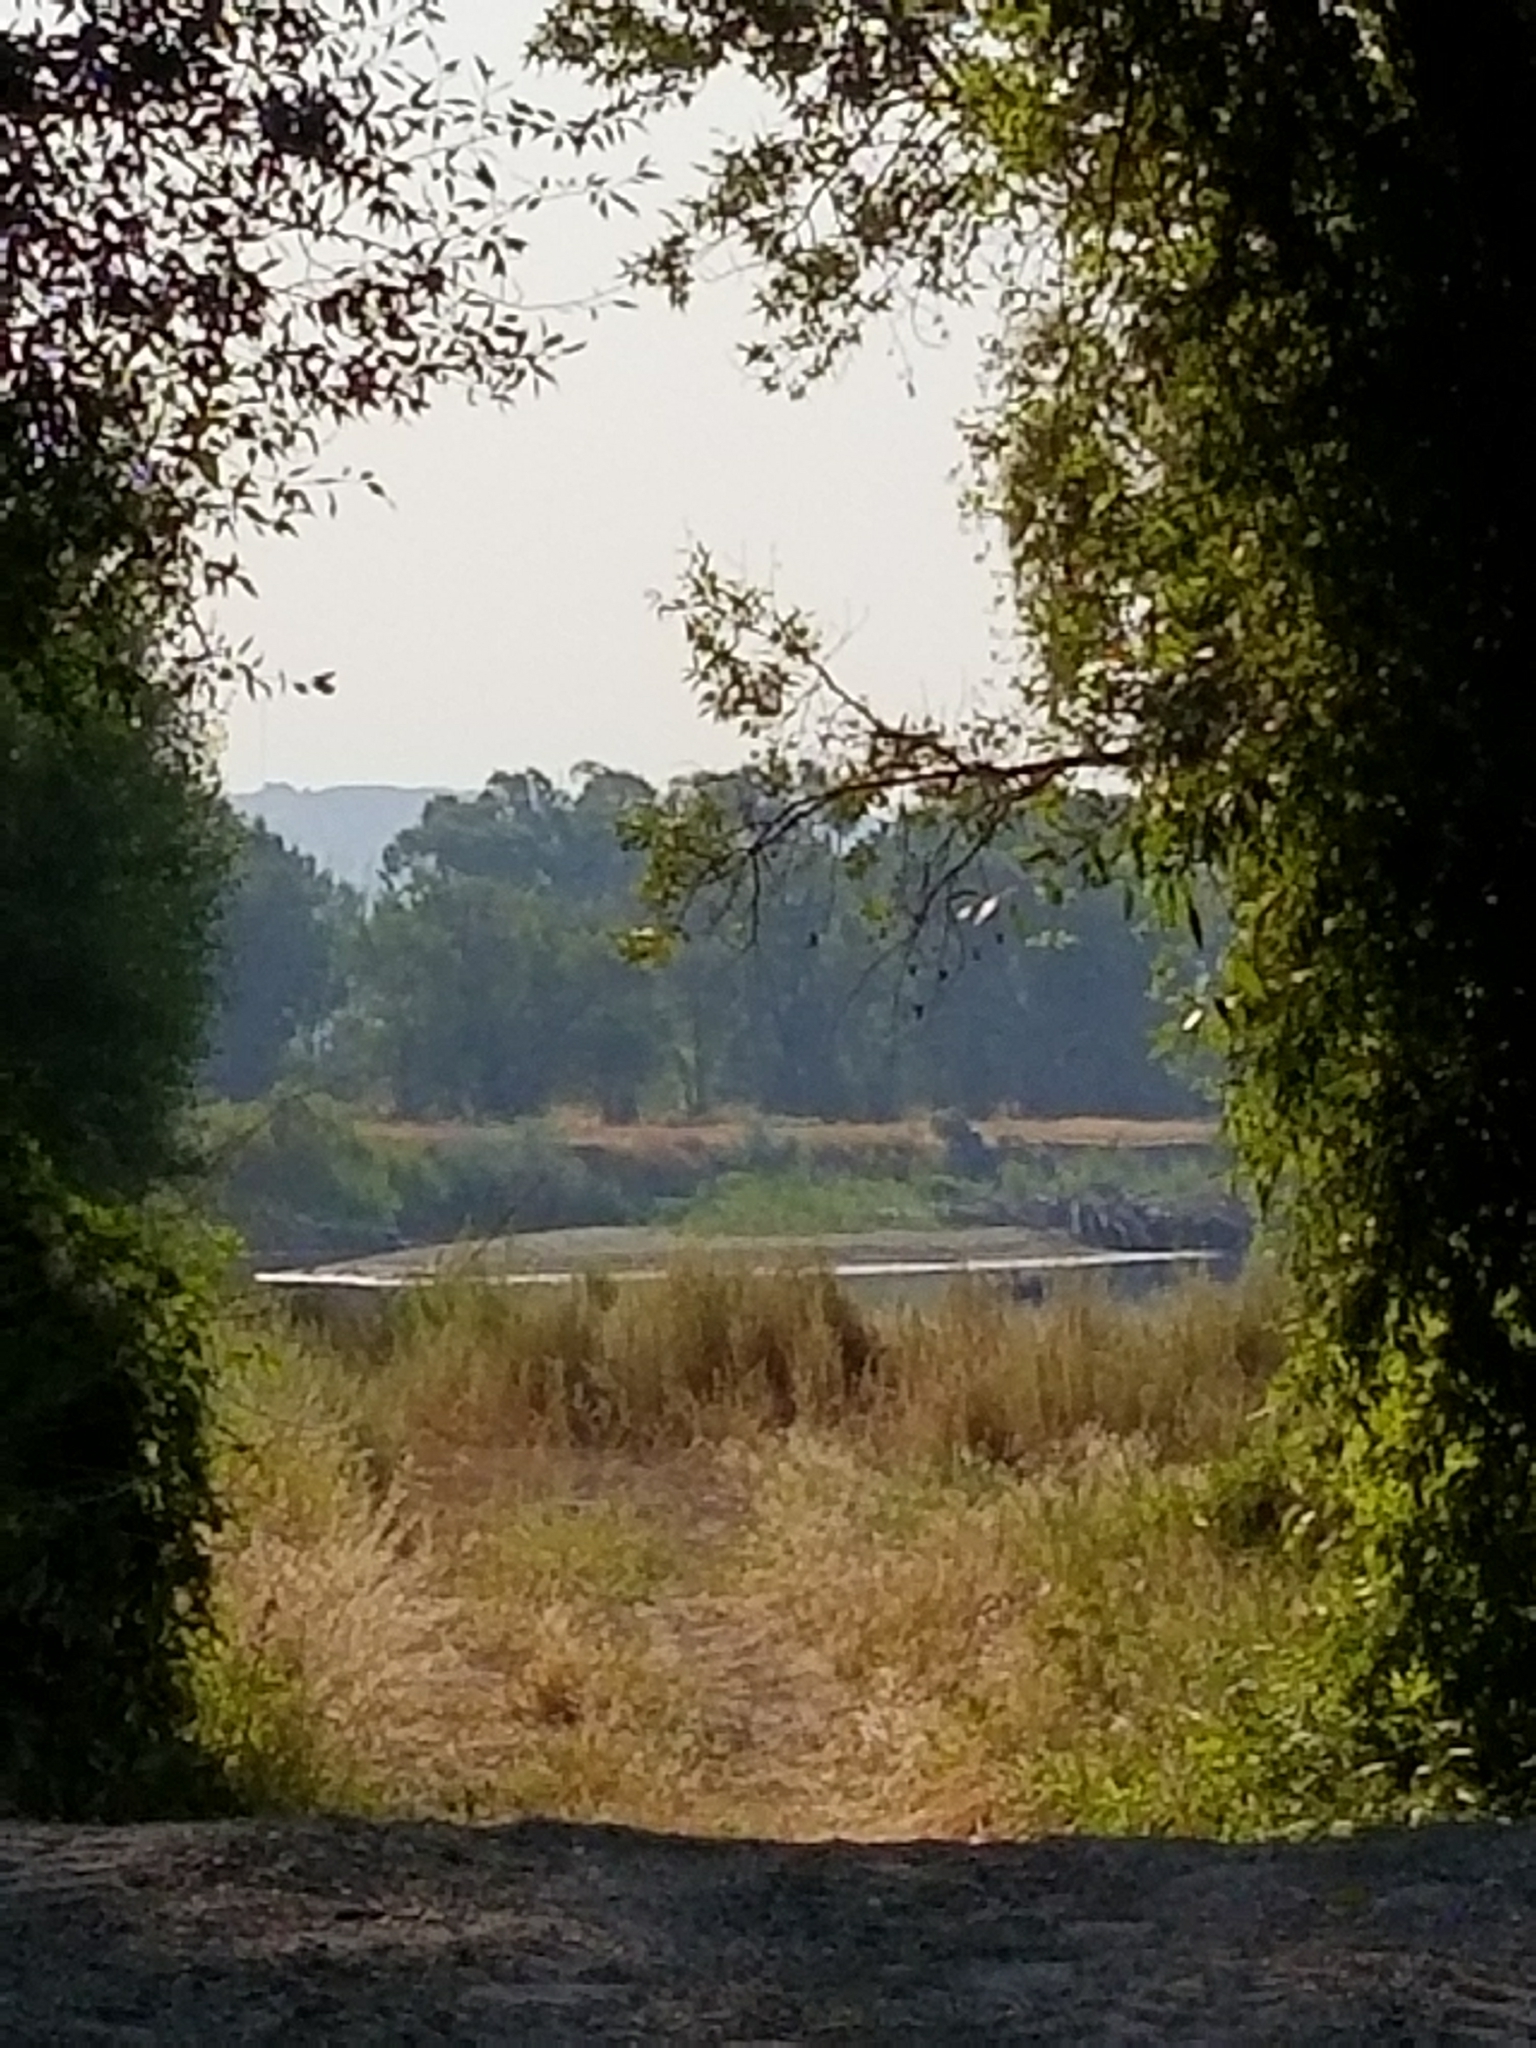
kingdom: Plantae
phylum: Tracheophyta
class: Magnoliopsida
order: Dipsacales
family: Caprifoliaceae
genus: Symphoricarpos
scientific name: Symphoricarpos occidentalis
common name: Wolfberry
